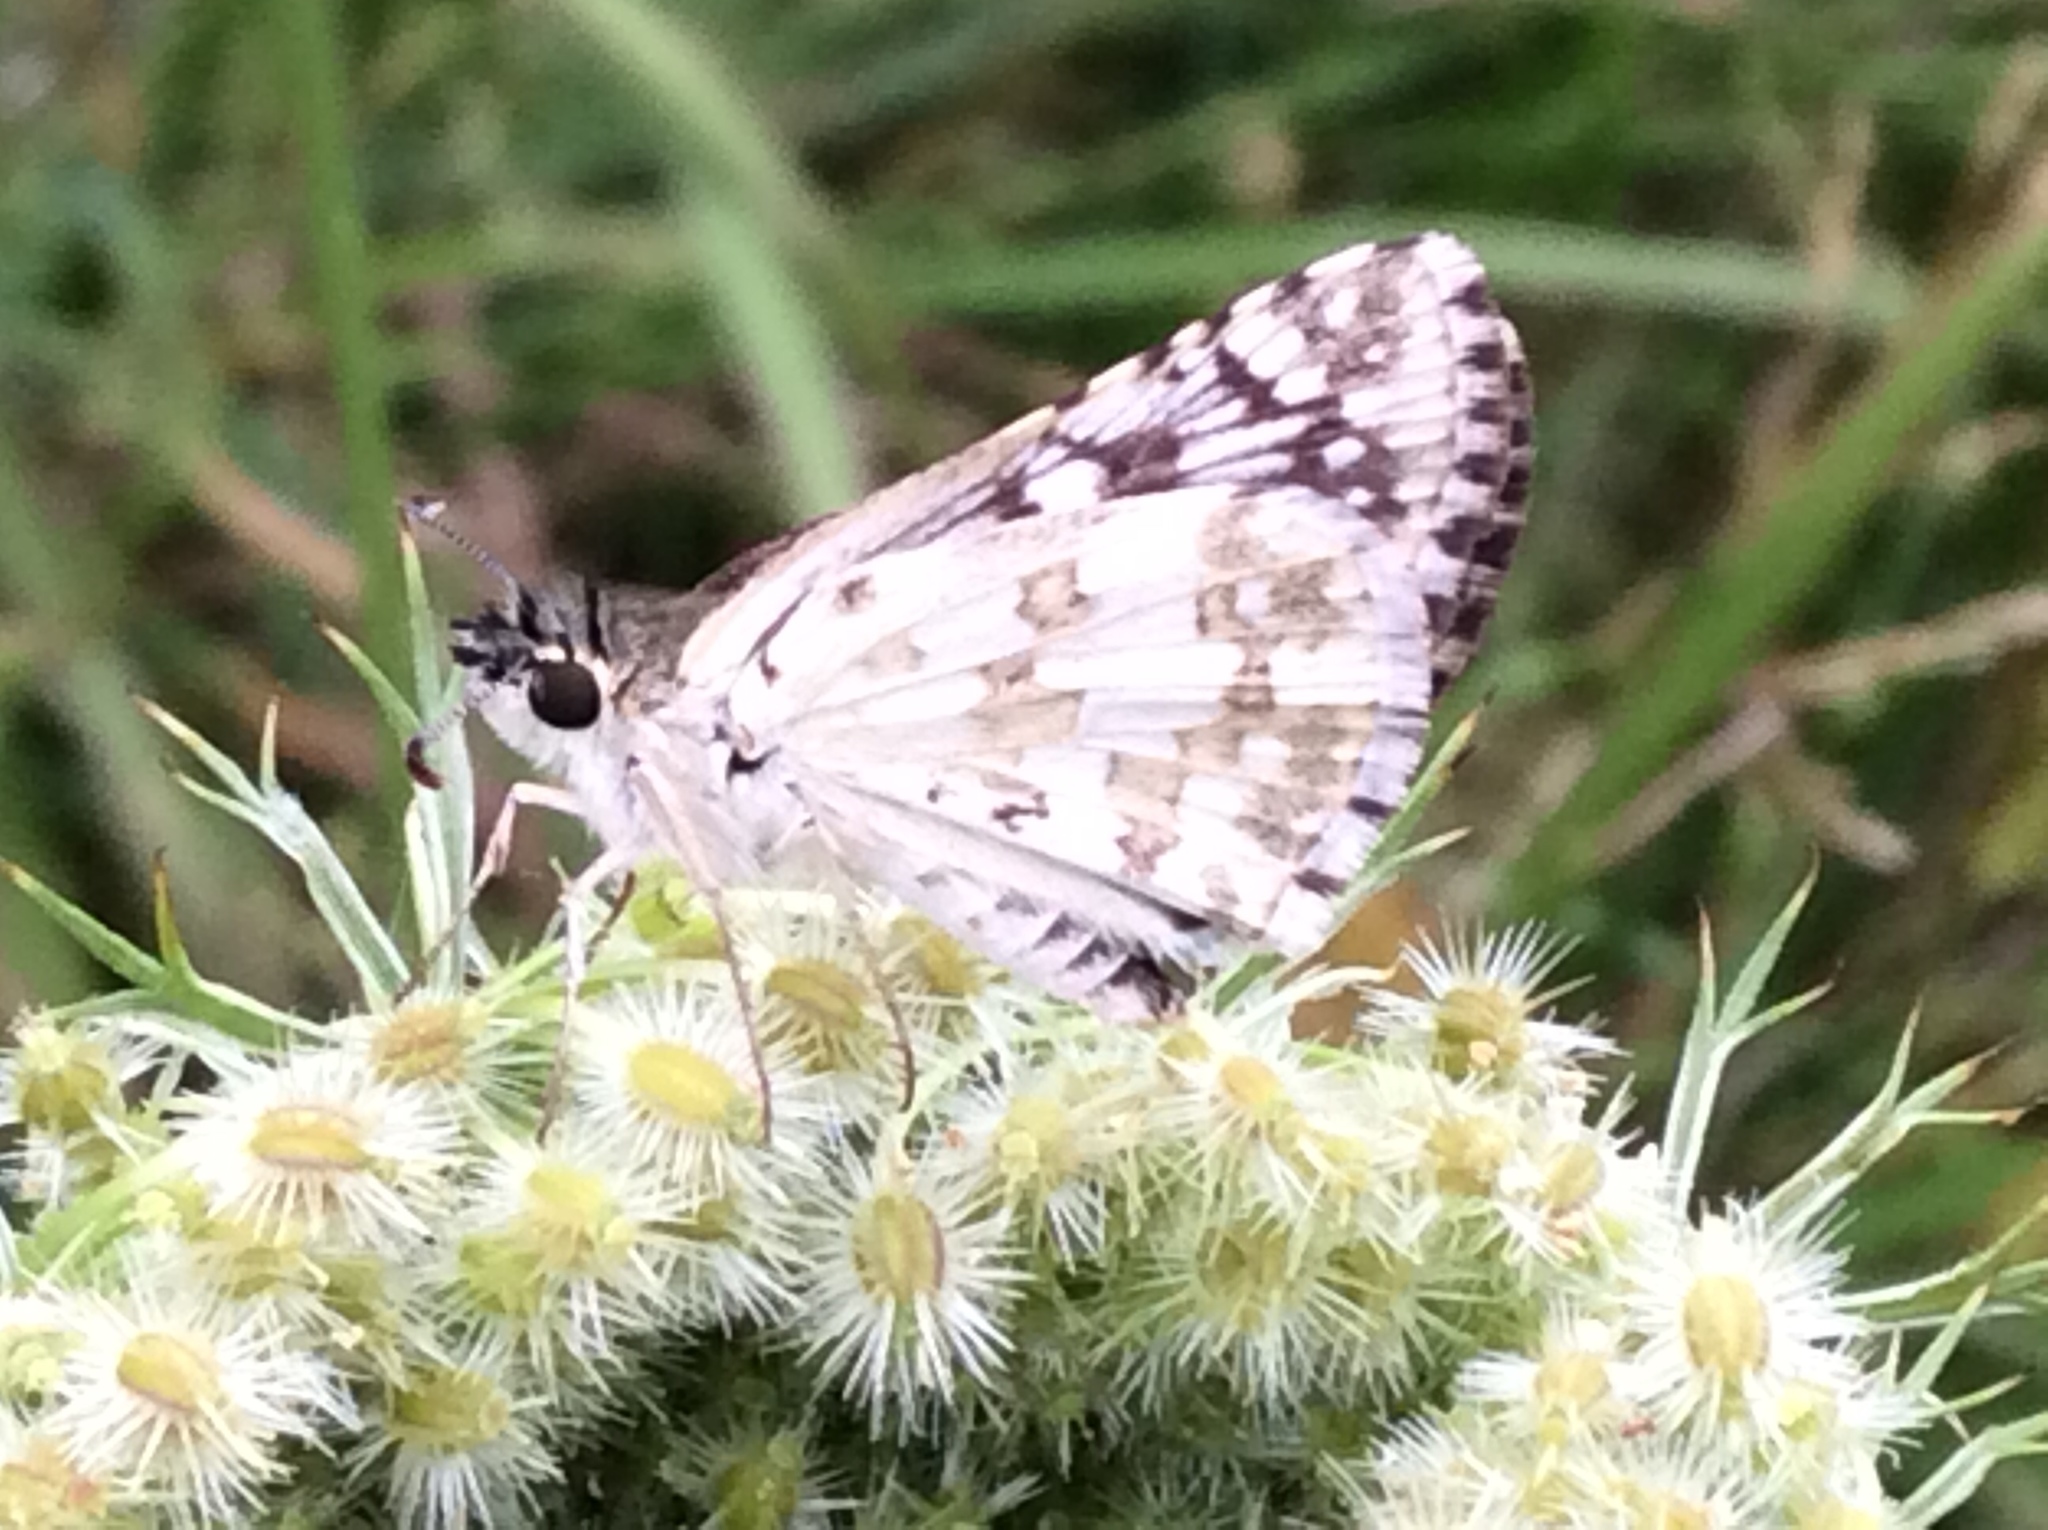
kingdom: Animalia
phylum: Arthropoda
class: Insecta
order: Lepidoptera
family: Hesperiidae
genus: Burnsius
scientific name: Burnsius communis
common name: Common checkered-skipper
